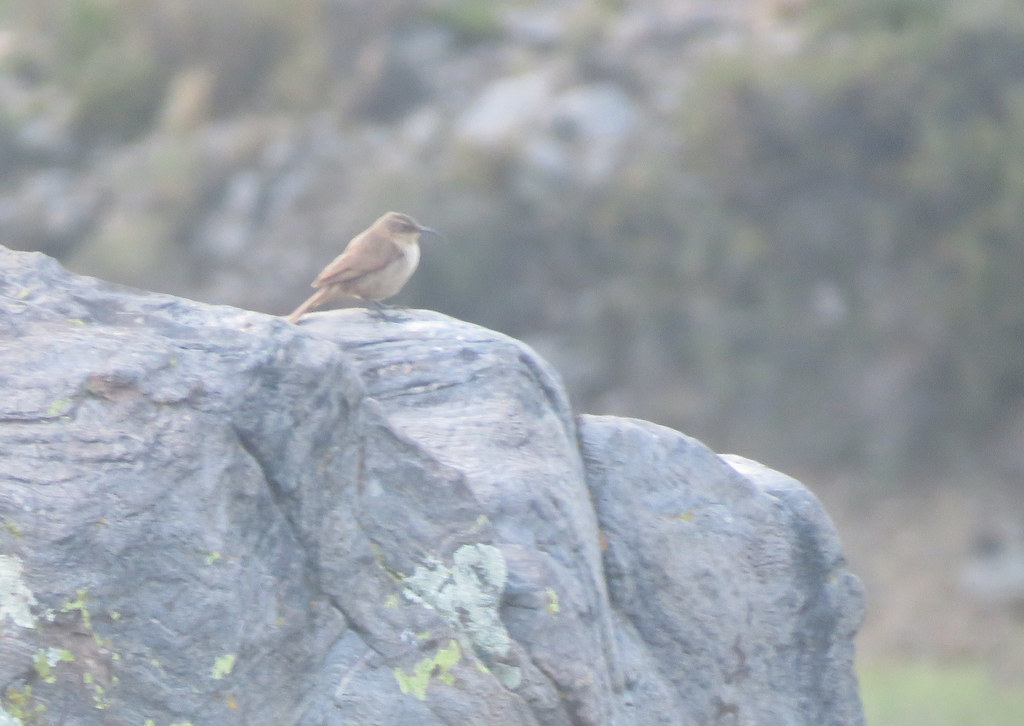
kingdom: Animalia
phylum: Chordata
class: Aves
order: Passeriformes
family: Furnariidae
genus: Upucerthia
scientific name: Upucerthia validirostris
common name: Buff-breasted earthcreeper
